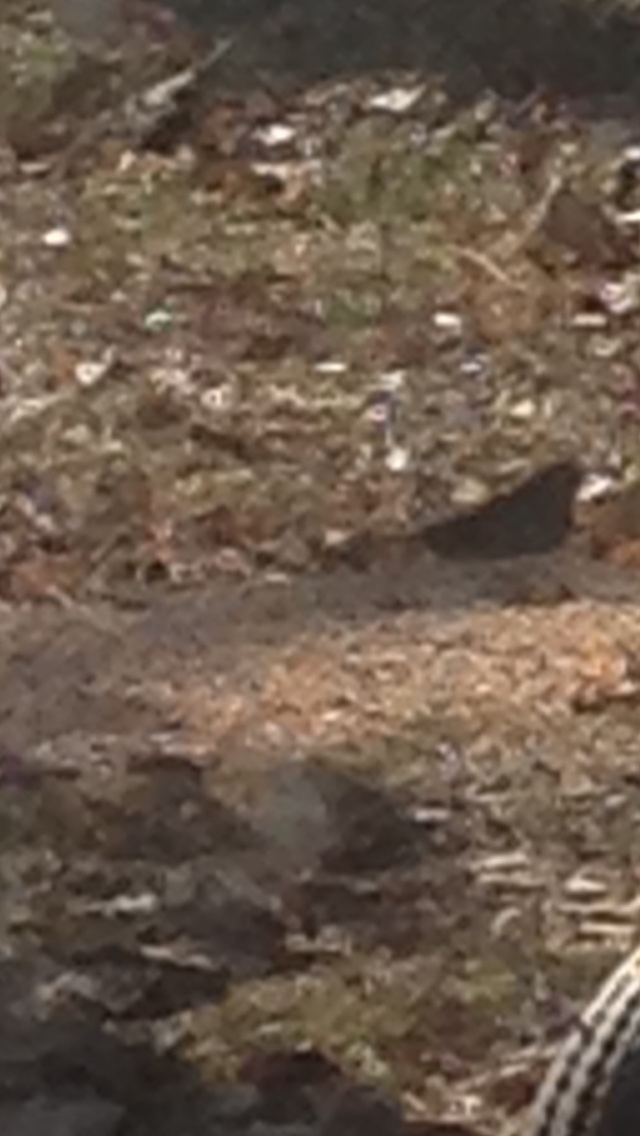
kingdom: Animalia
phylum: Chordata
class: Aves
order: Passeriformes
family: Passerellidae
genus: Junco
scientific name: Junco hyemalis
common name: Dark-eyed junco
